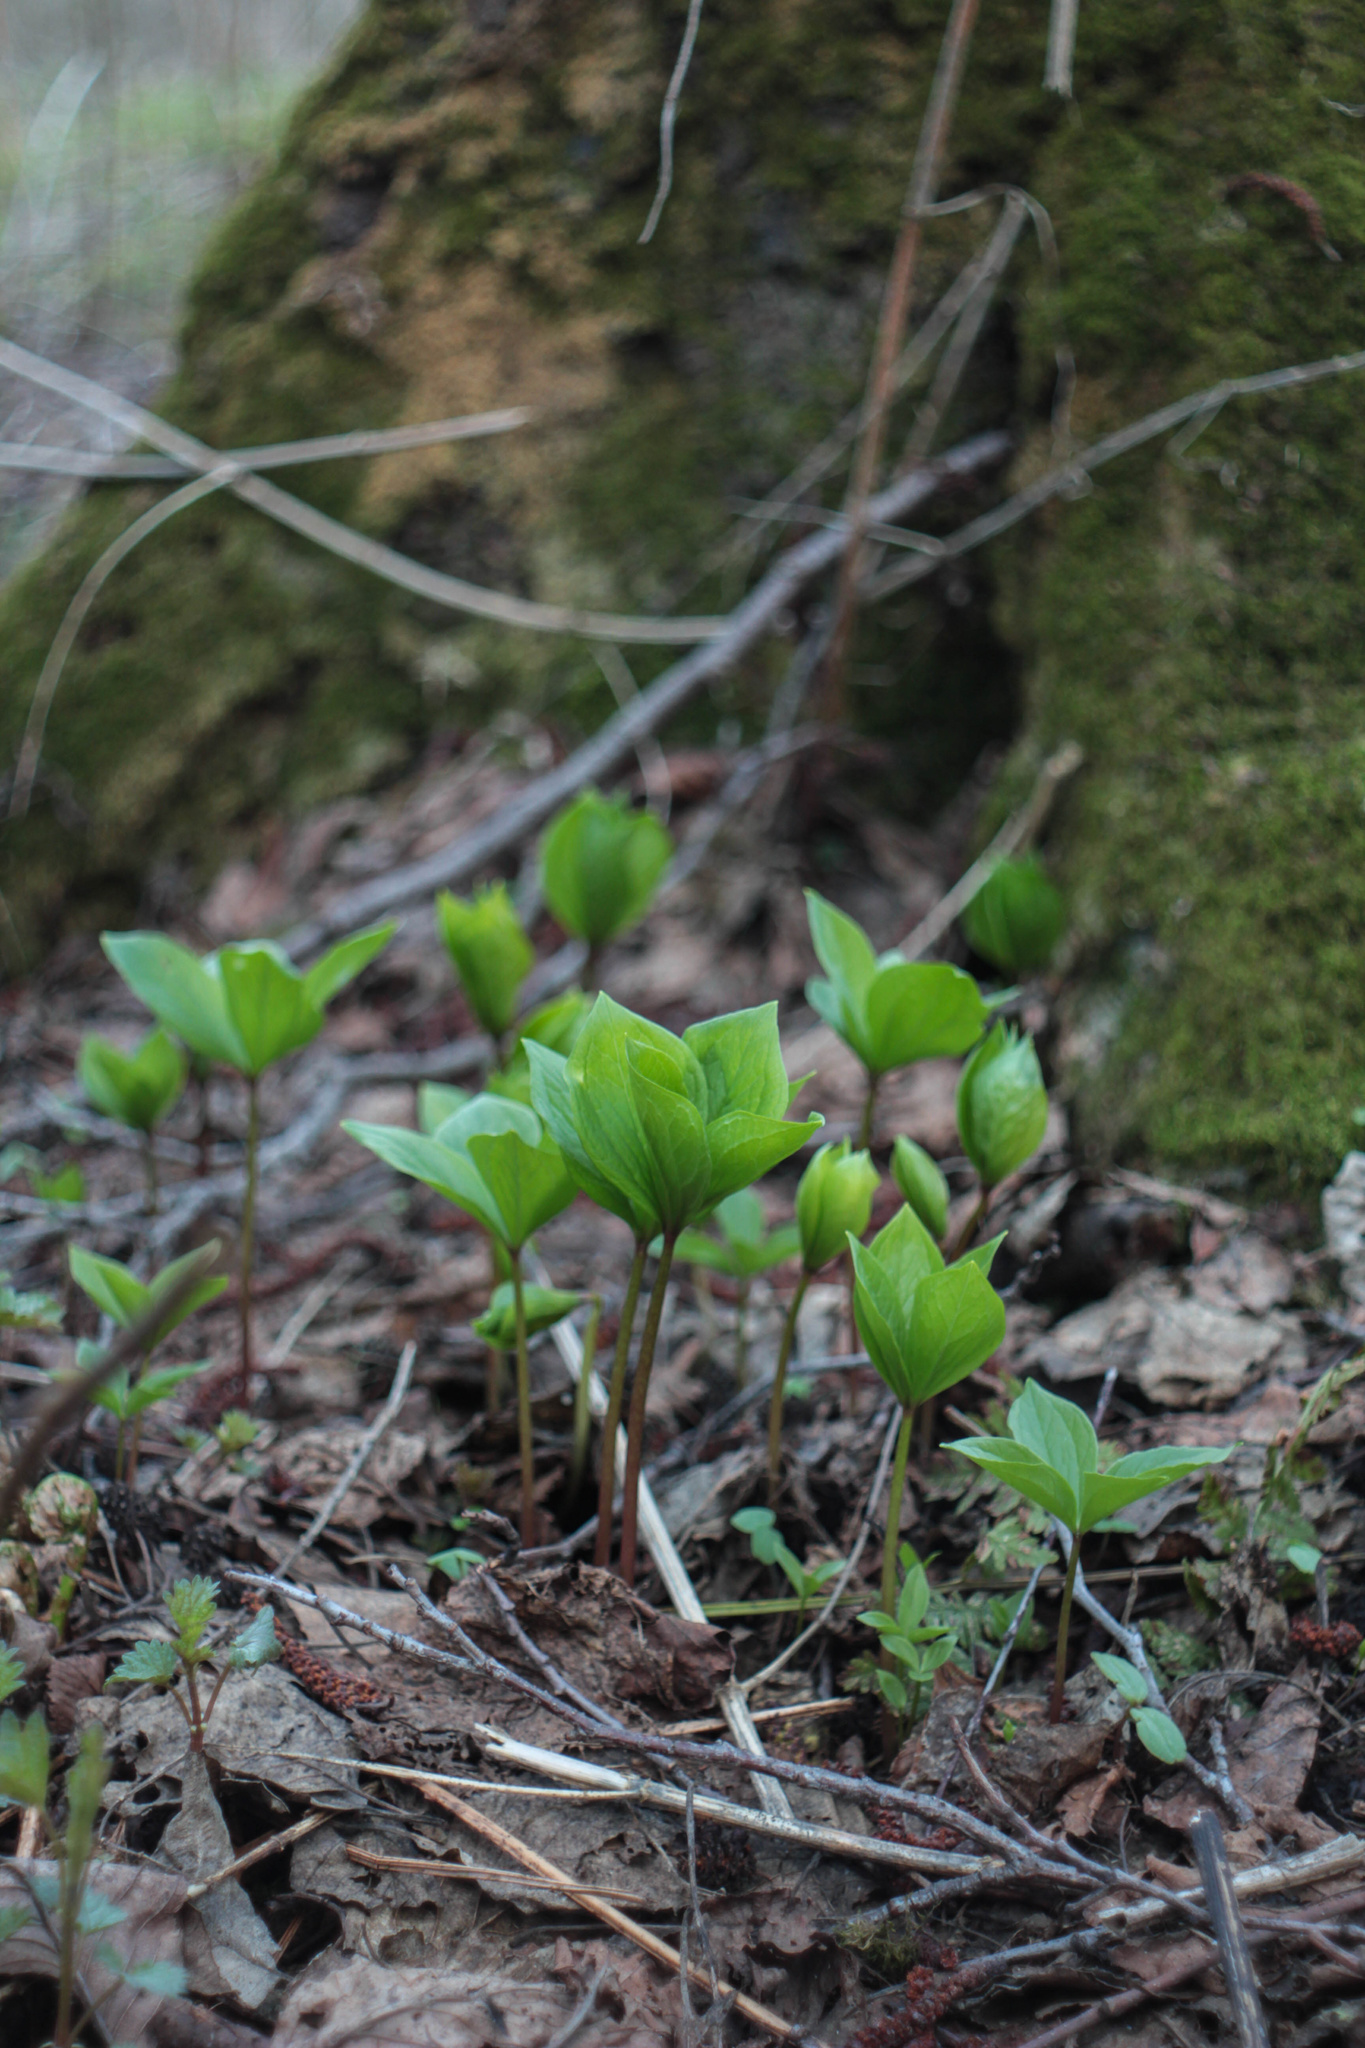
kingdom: Plantae
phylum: Tracheophyta
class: Liliopsida
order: Liliales
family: Melanthiaceae
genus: Paris
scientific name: Paris quadrifolia
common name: Herb-paris
